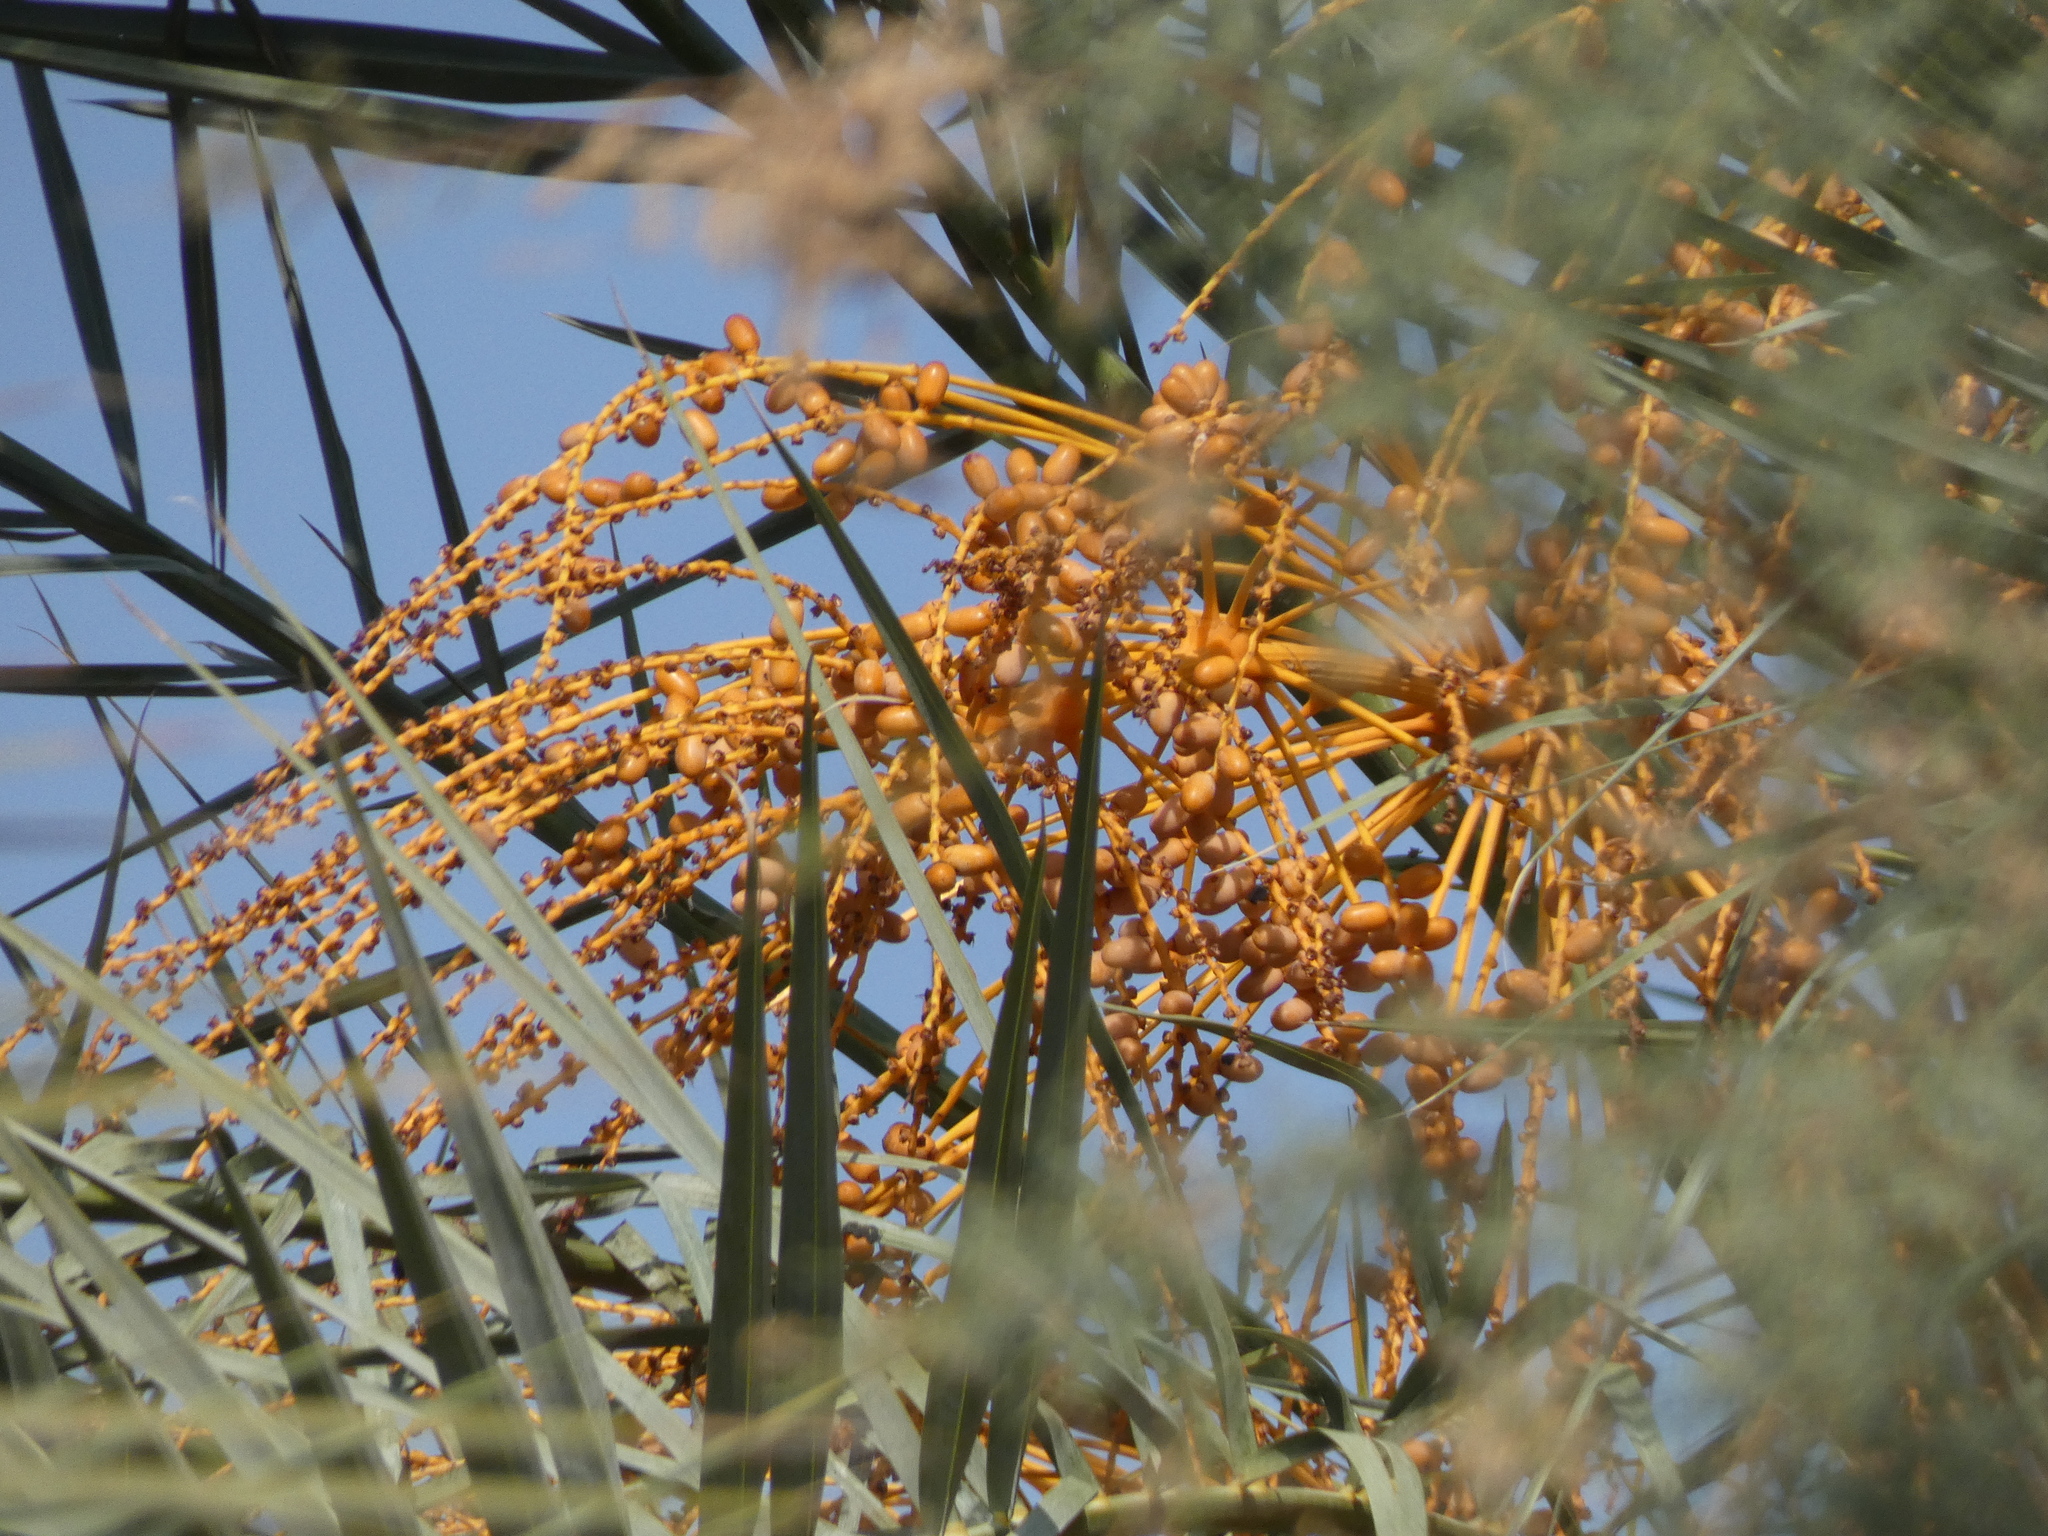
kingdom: Plantae
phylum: Tracheophyta
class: Liliopsida
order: Arecales
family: Arecaceae
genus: Phoenix
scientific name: Phoenix dactylifera
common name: Date palm
